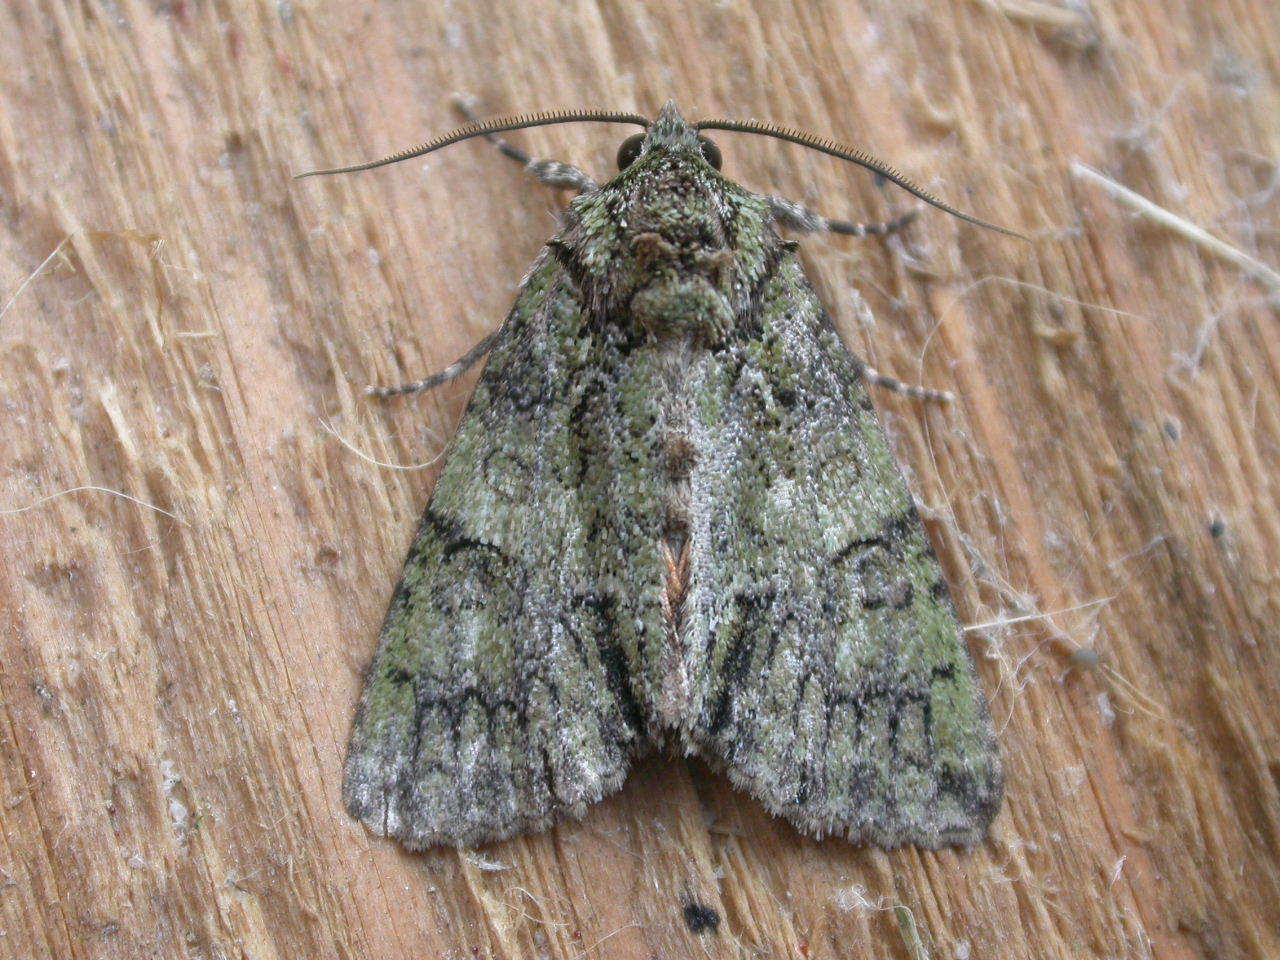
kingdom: Animalia
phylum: Arthropoda
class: Insecta
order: Lepidoptera
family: Noctuidae
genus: Polyphaenis
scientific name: Polyphaenis sericata
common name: Guernsey underwing
